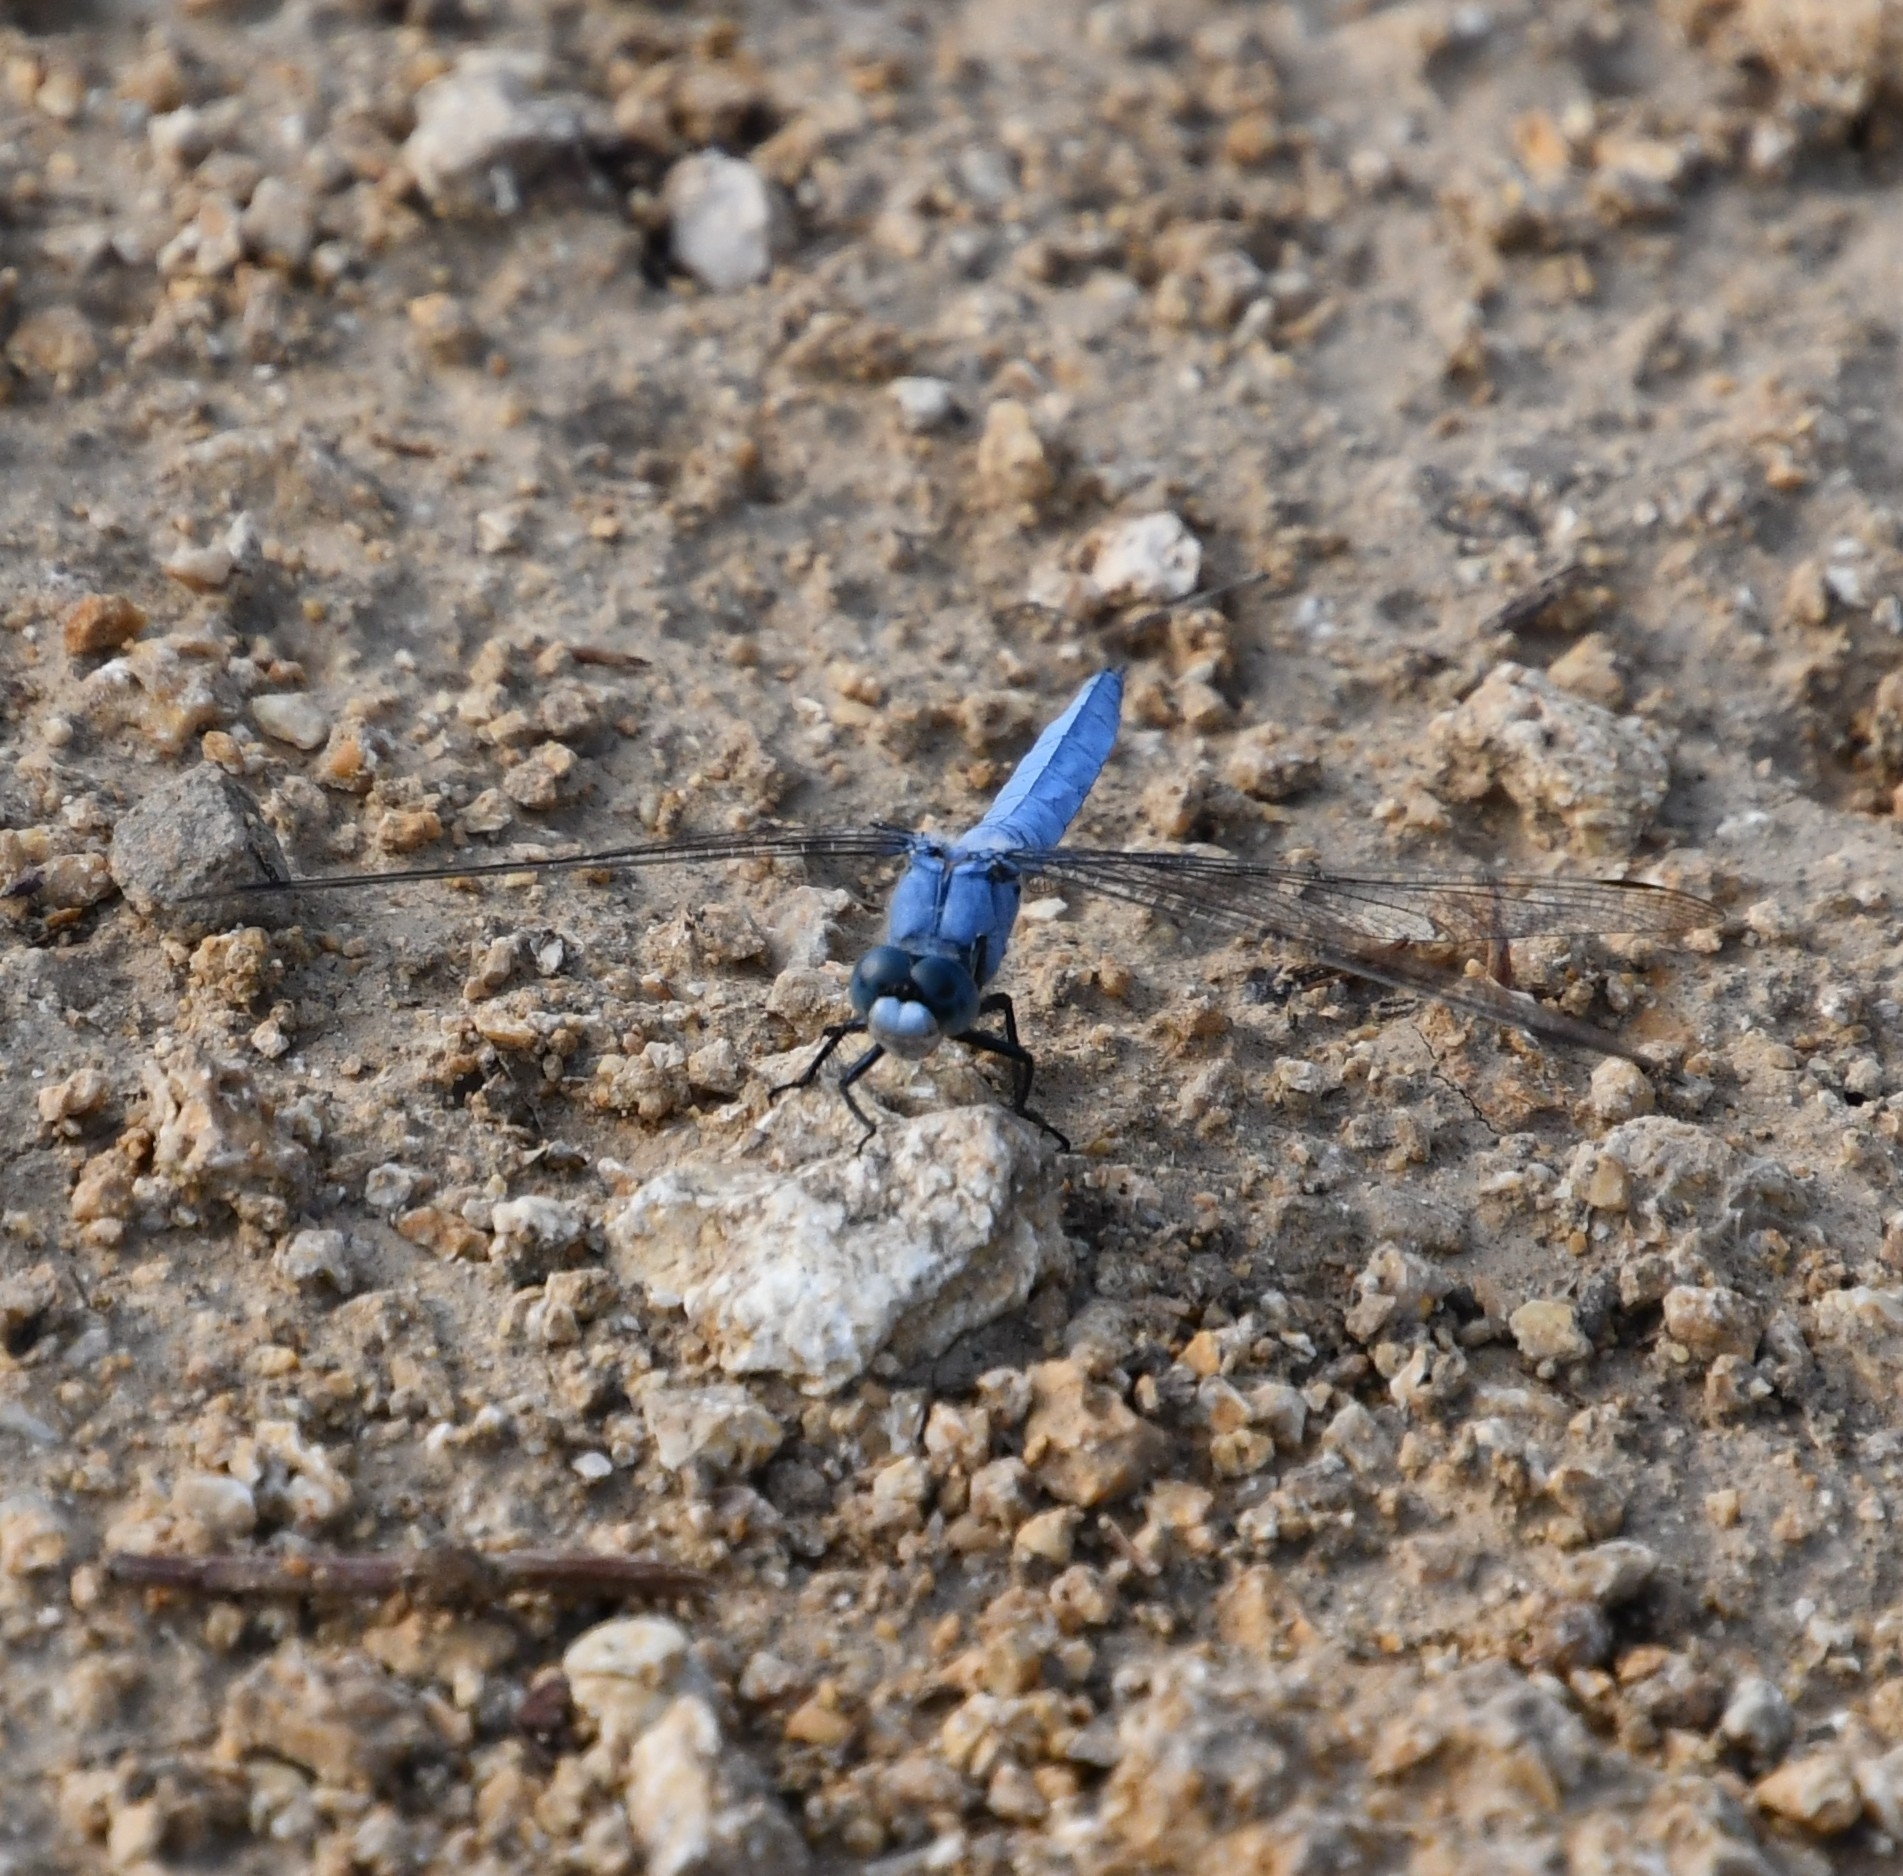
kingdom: Animalia
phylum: Arthropoda
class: Insecta
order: Odonata
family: Libellulidae
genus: Orthetrum
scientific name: Orthetrum brunneum
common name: Southern skimmer
